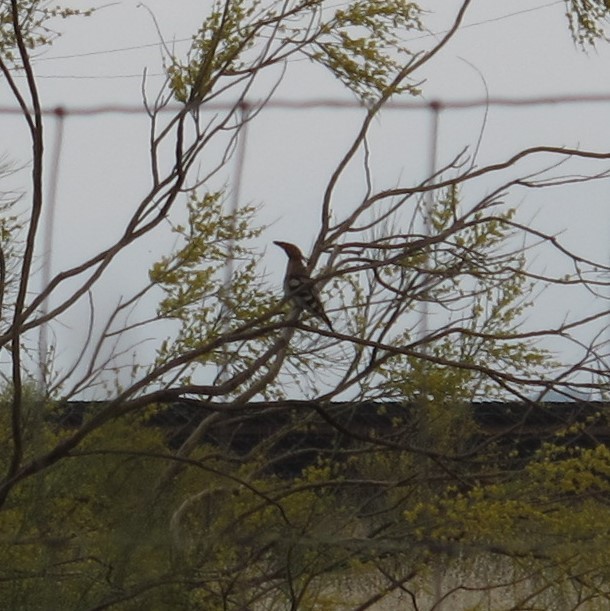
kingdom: Animalia
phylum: Chordata
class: Aves
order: Bucerotiformes
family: Upupidae
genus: Upupa
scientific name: Upupa epops
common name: Eurasian hoopoe
